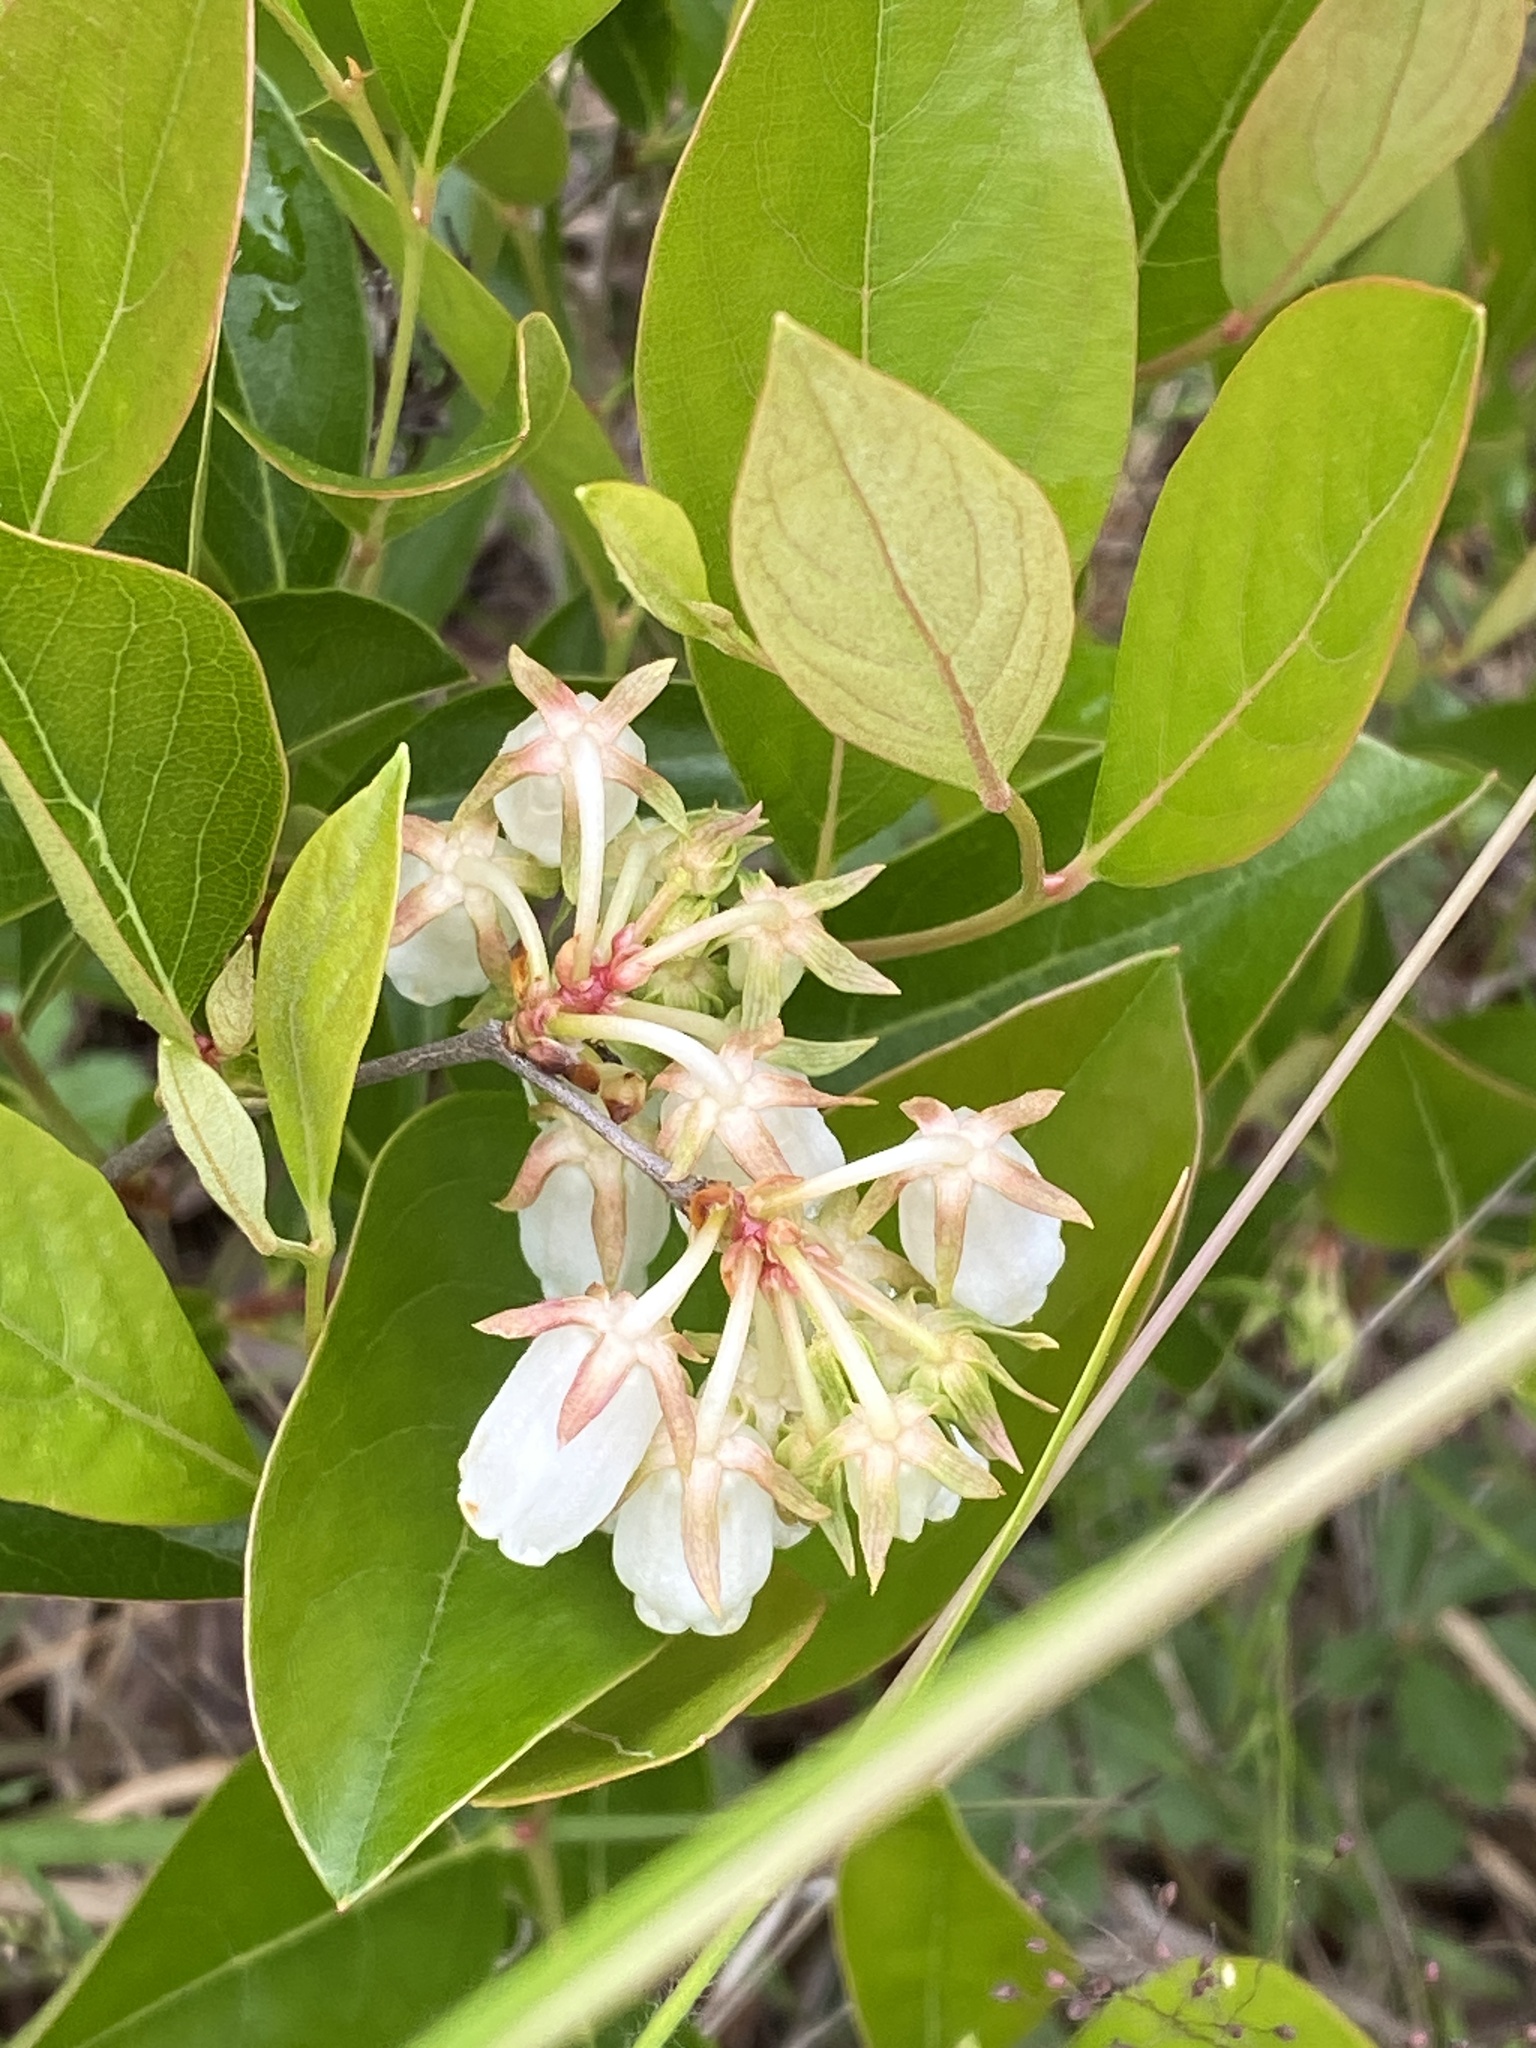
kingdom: Plantae
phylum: Tracheophyta
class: Magnoliopsida
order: Ericales
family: Ericaceae
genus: Lyonia
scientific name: Lyonia mariana
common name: Staggerbush
